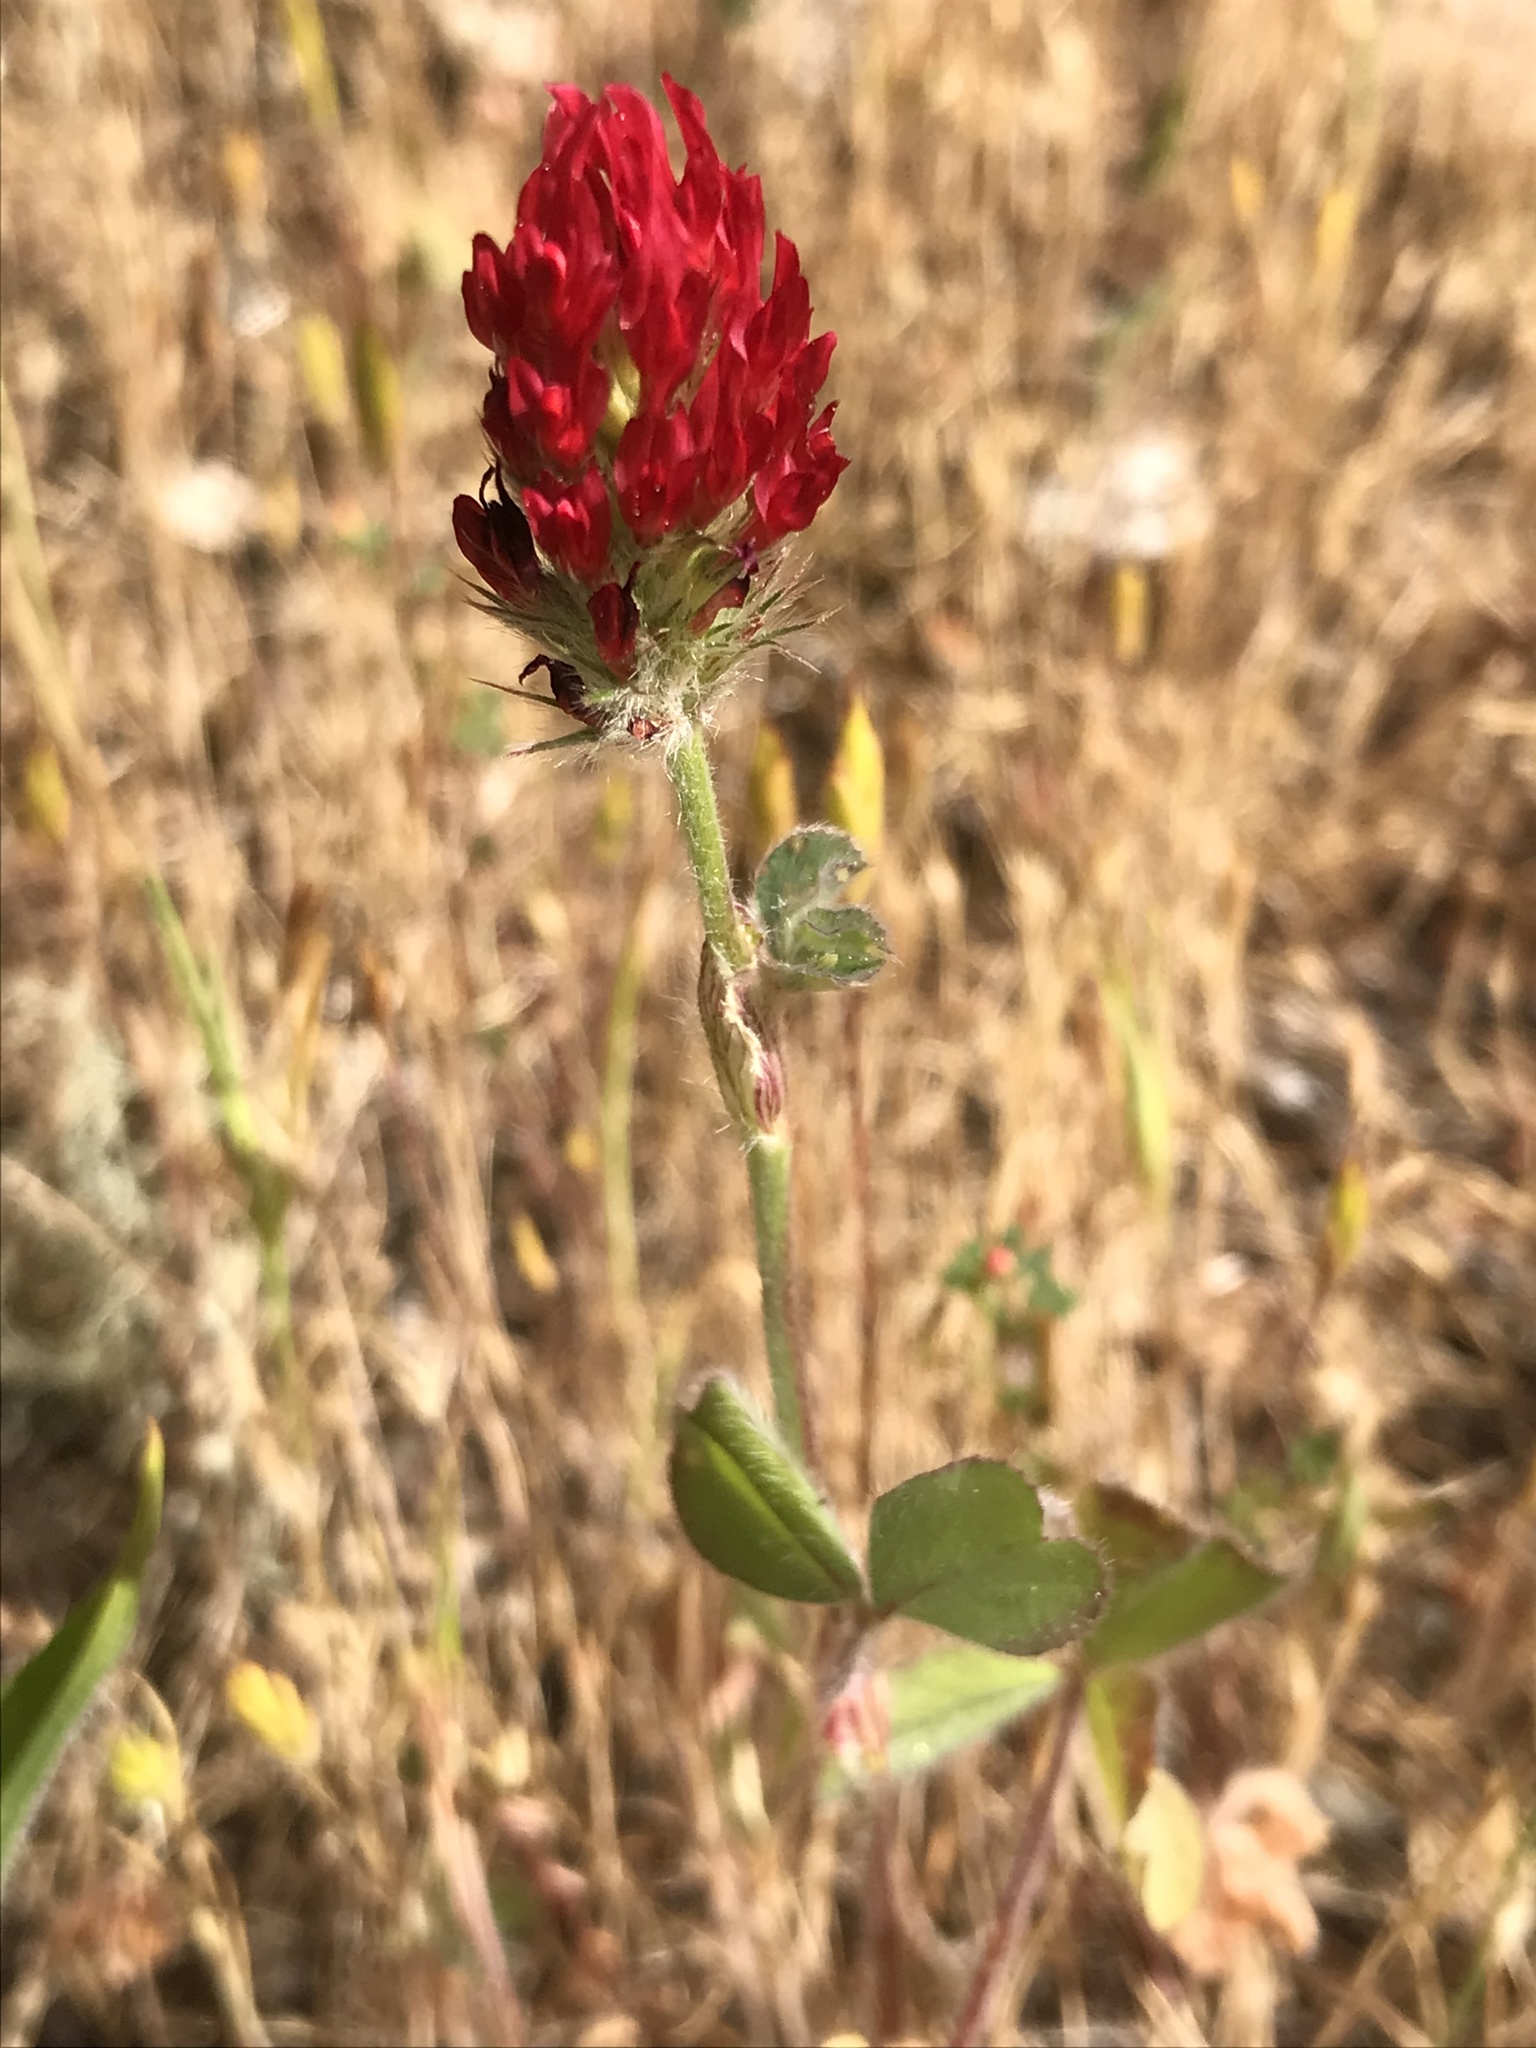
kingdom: Plantae
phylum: Tracheophyta
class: Magnoliopsida
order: Fabales
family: Fabaceae
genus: Trifolium
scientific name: Trifolium incarnatum
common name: Crimson clover
